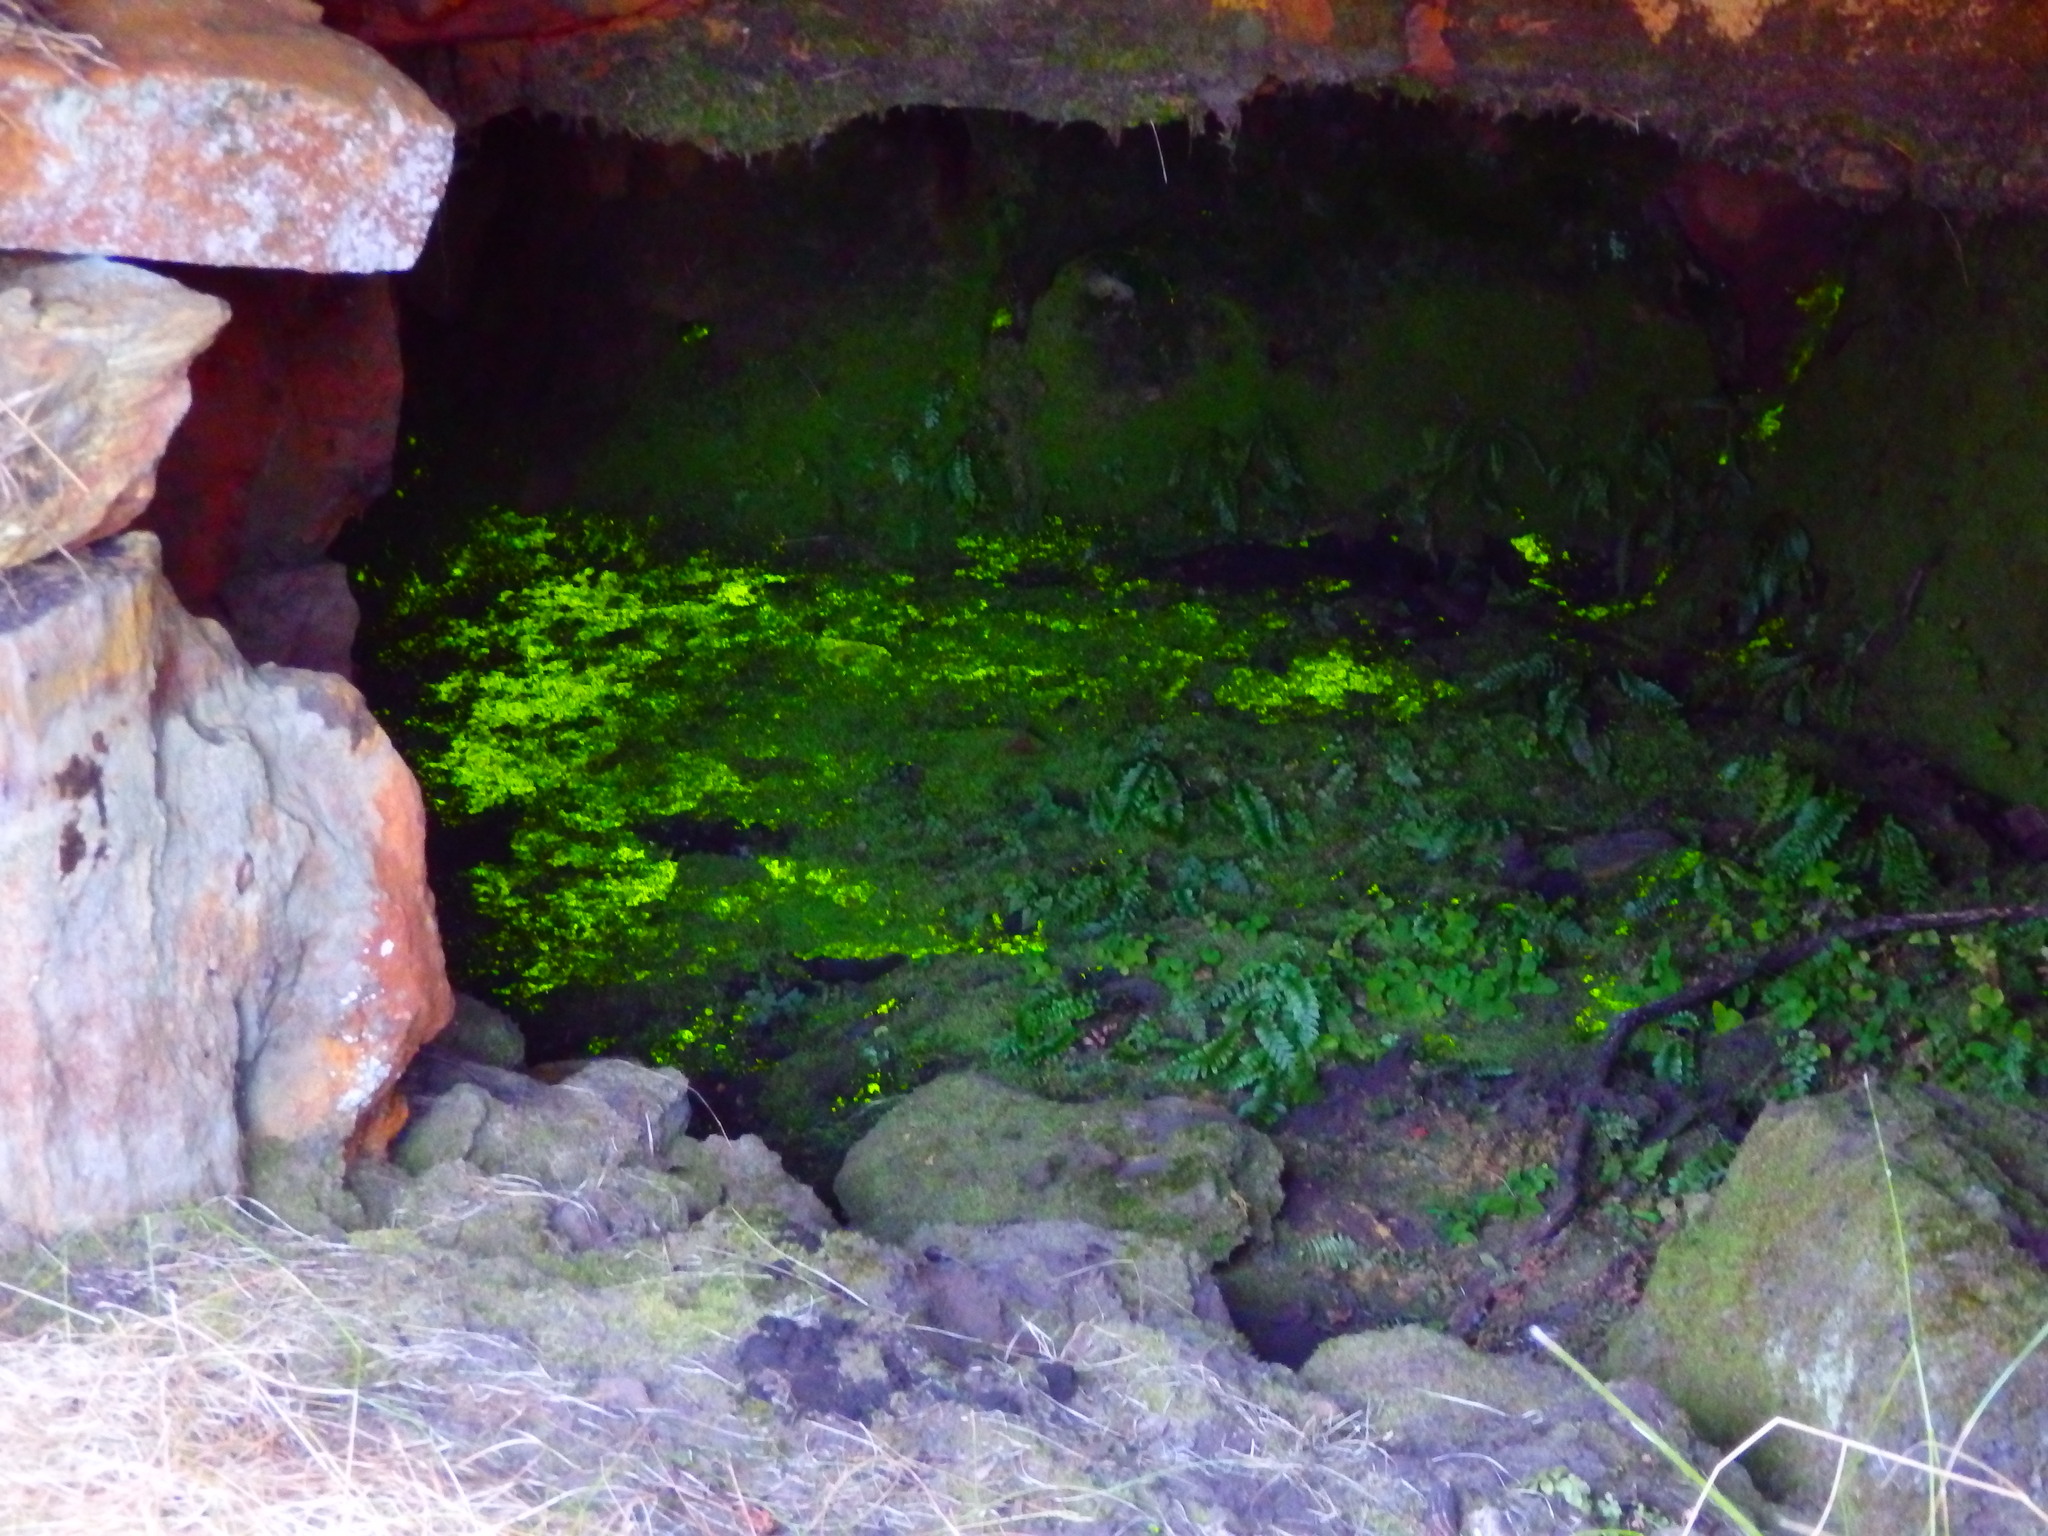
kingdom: Plantae
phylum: Bryophyta
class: Bryopsida
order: Dicranales
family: Schistostegaceae
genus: Schistostega
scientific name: Schistostega pennata
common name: Luminous moss
